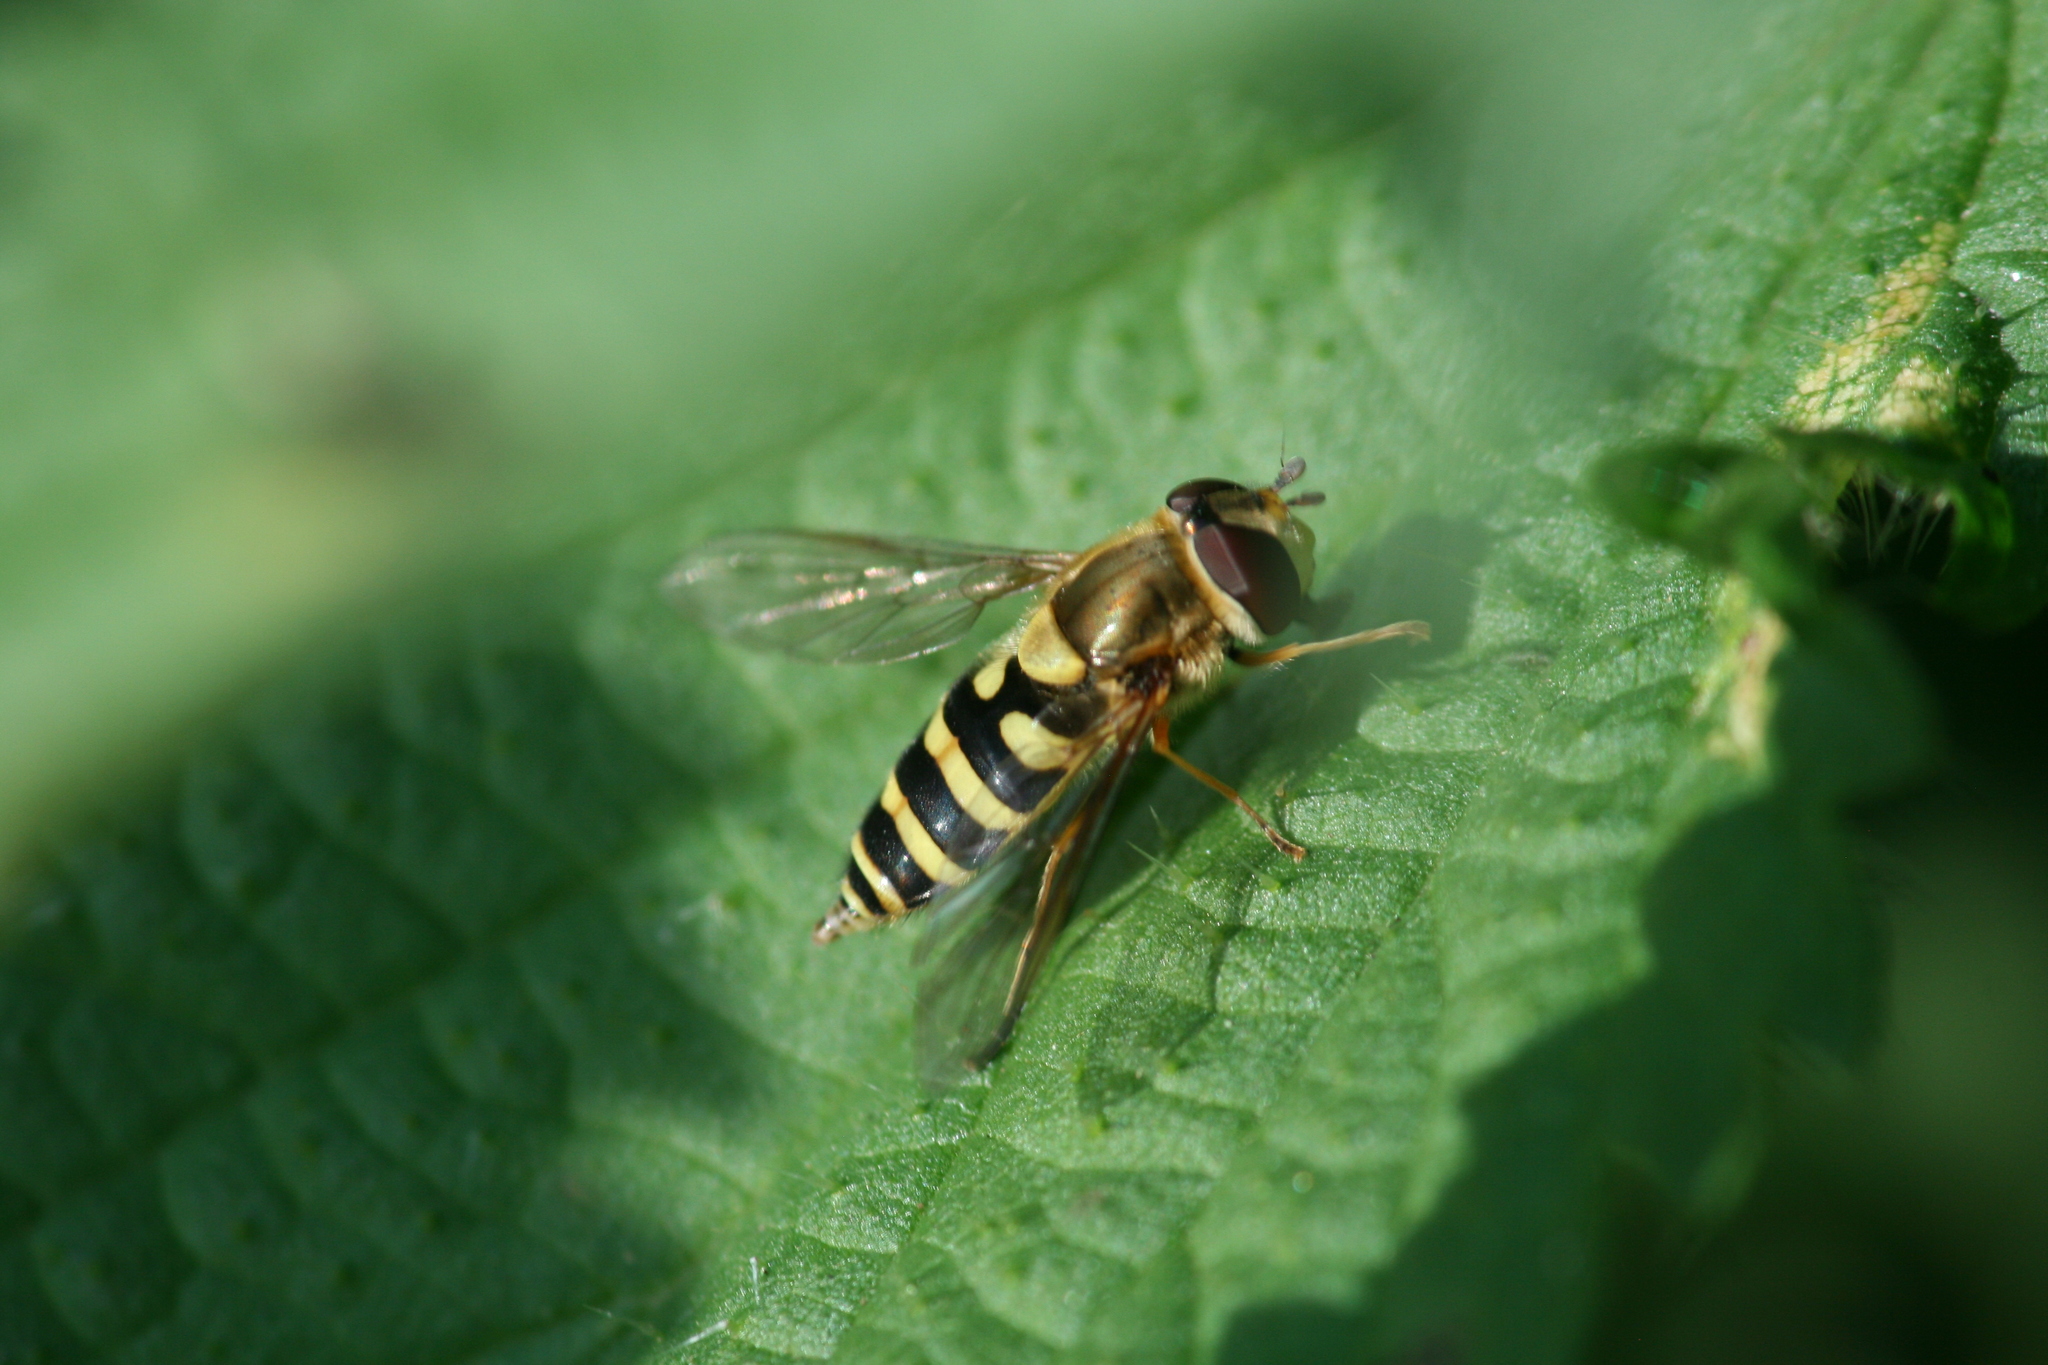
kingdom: Animalia
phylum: Arthropoda
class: Insecta
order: Diptera
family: Syrphidae
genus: Syrphus
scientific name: Syrphus
